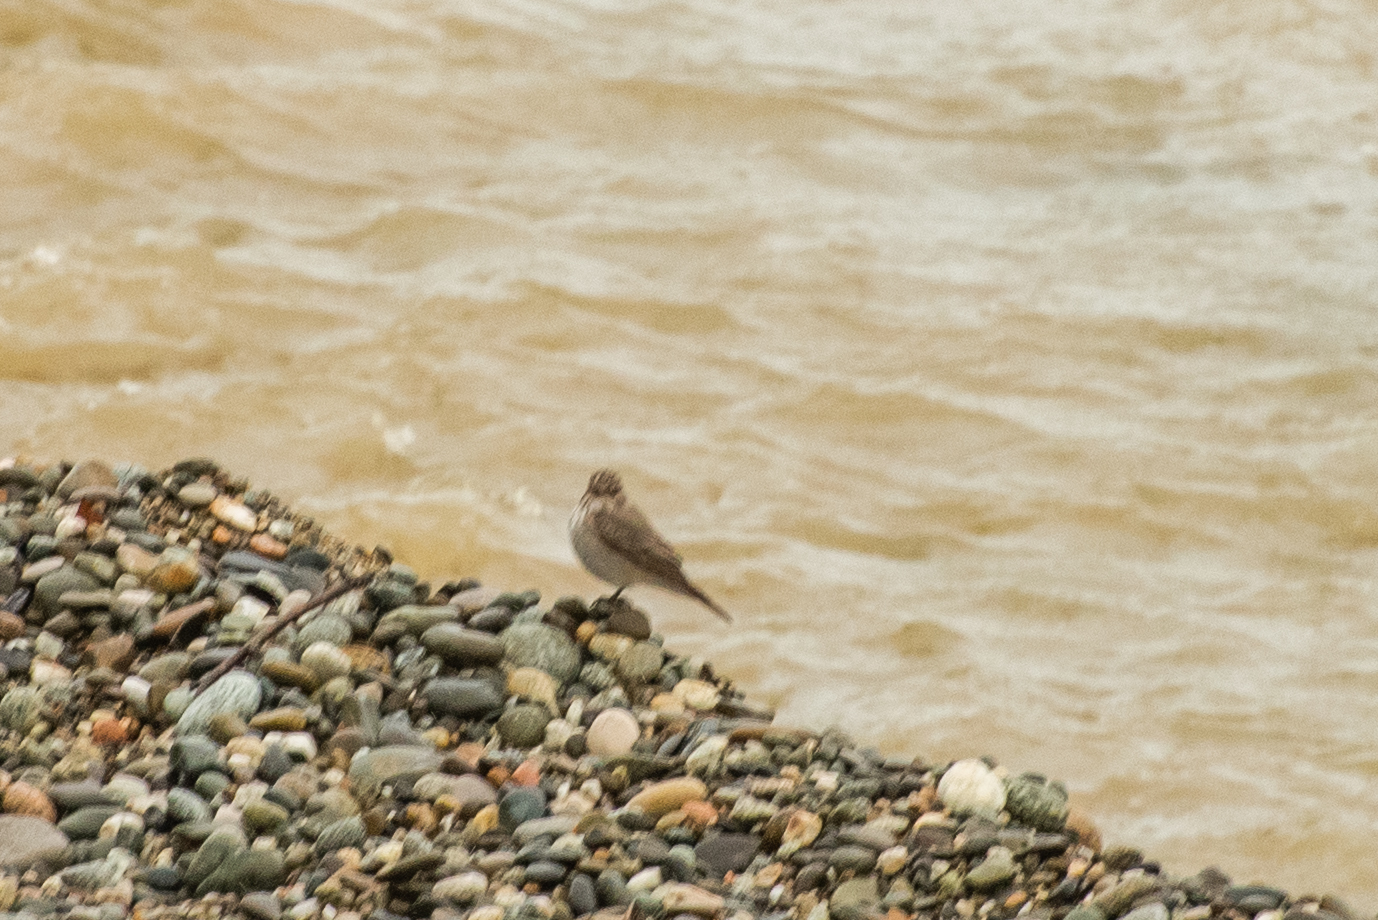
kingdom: Animalia
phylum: Chordata
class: Aves
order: Passeriformes
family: Muscicapidae
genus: Muscicapa
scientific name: Muscicapa striata
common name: Spotted flycatcher
